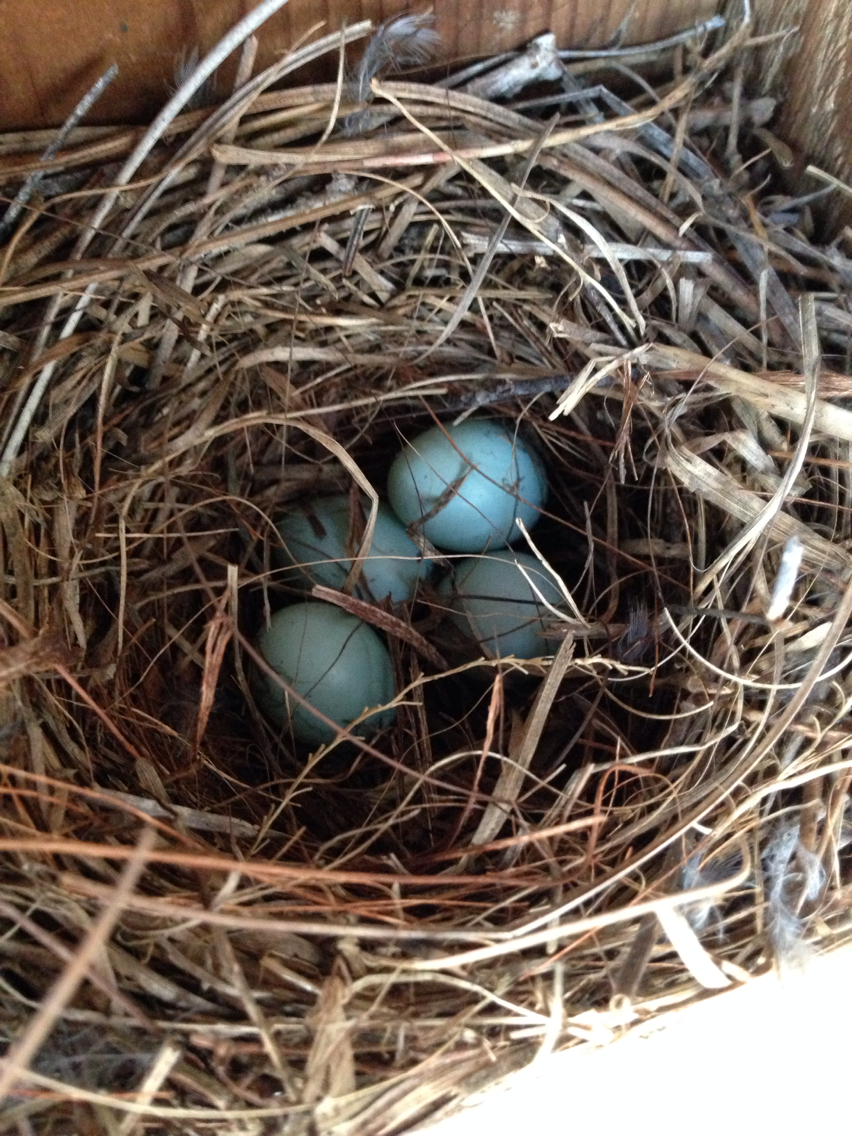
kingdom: Animalia
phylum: Chordata
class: Aves
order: Passeriformes
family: Turdidae
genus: Sialia
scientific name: Sialia sialis
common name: Eastern bluebird
